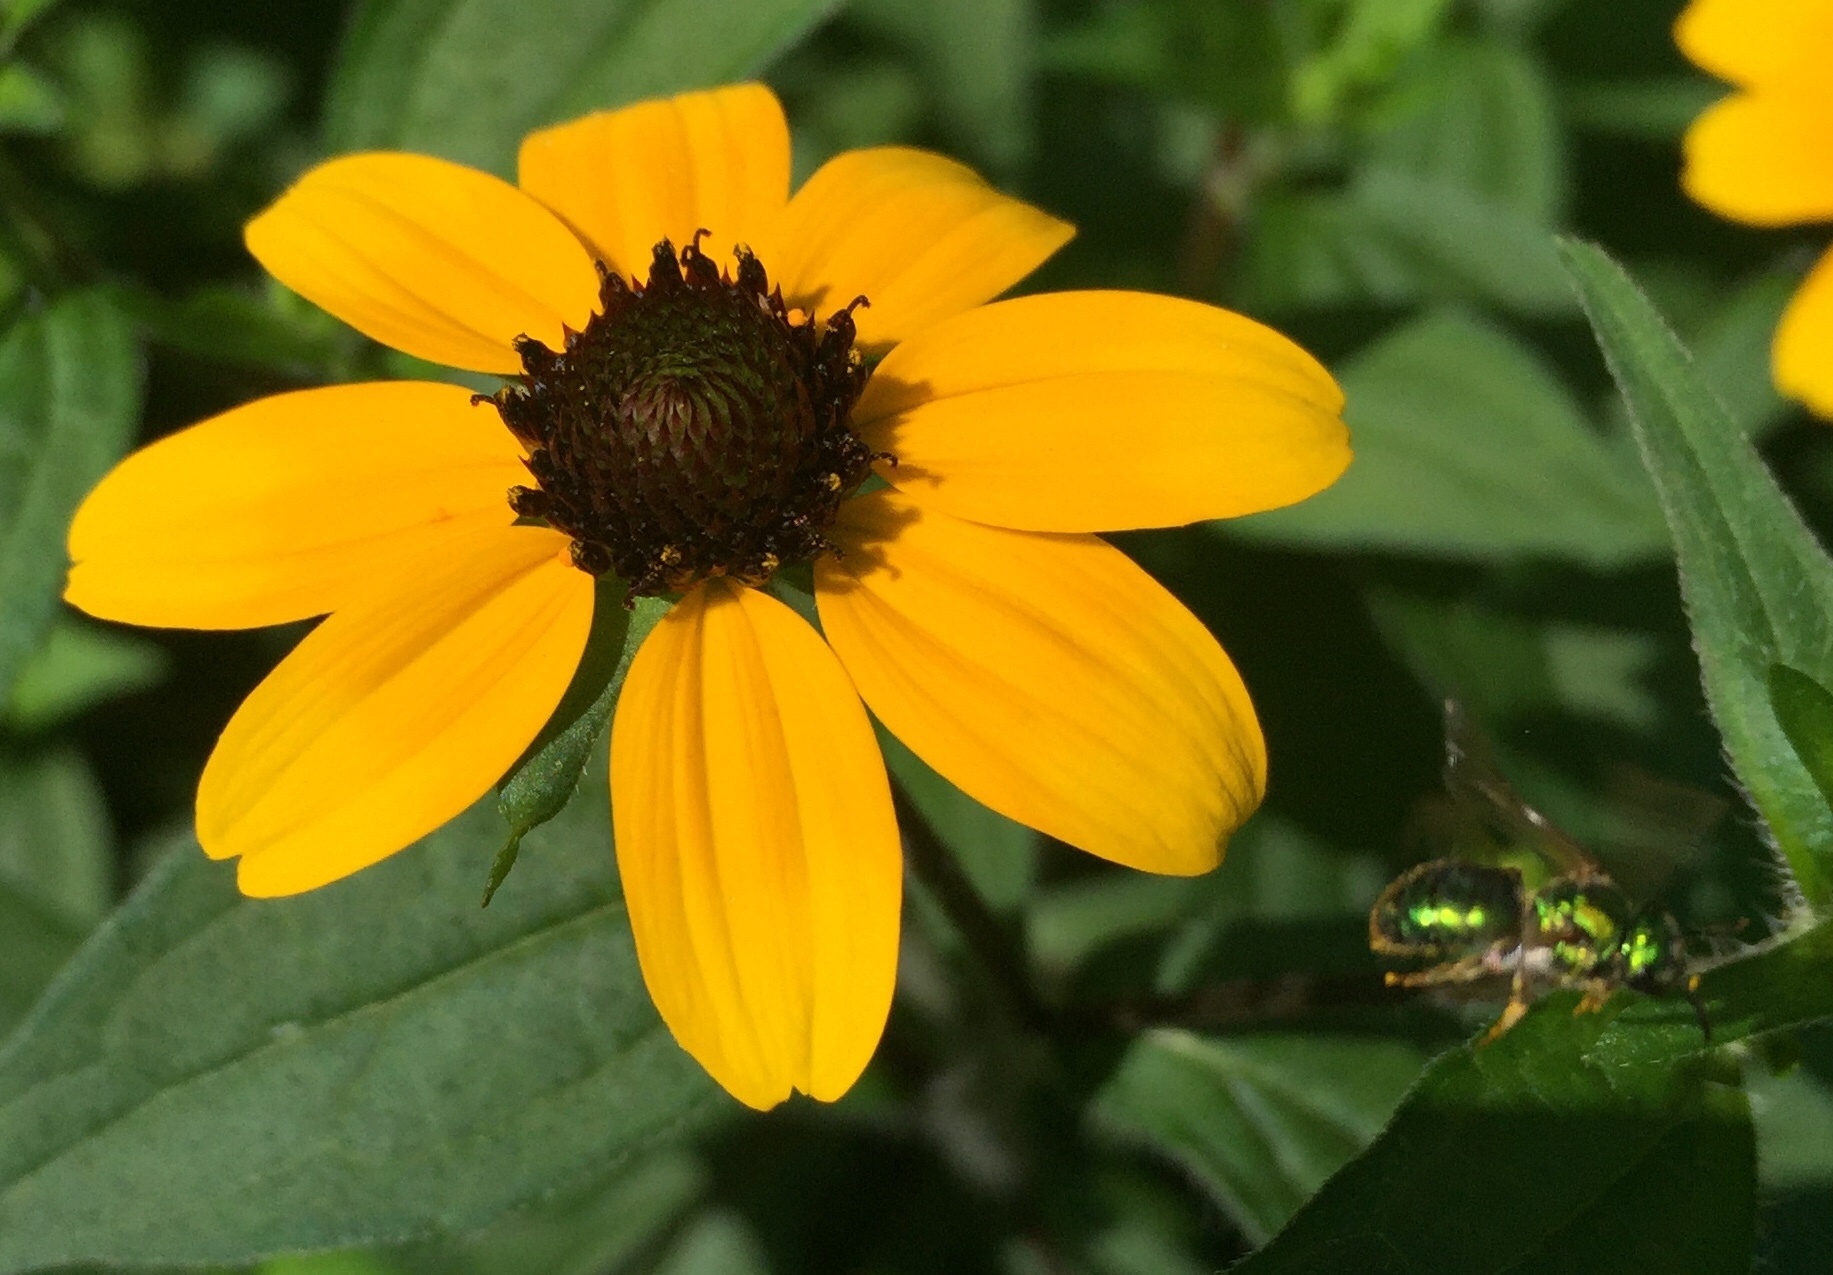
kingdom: Animalia
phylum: Arthropoda
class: Insecta
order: Hymenoptera
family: Halictidae
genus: Augochlora
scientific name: Augochlora pura
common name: Pure green sweat bee
